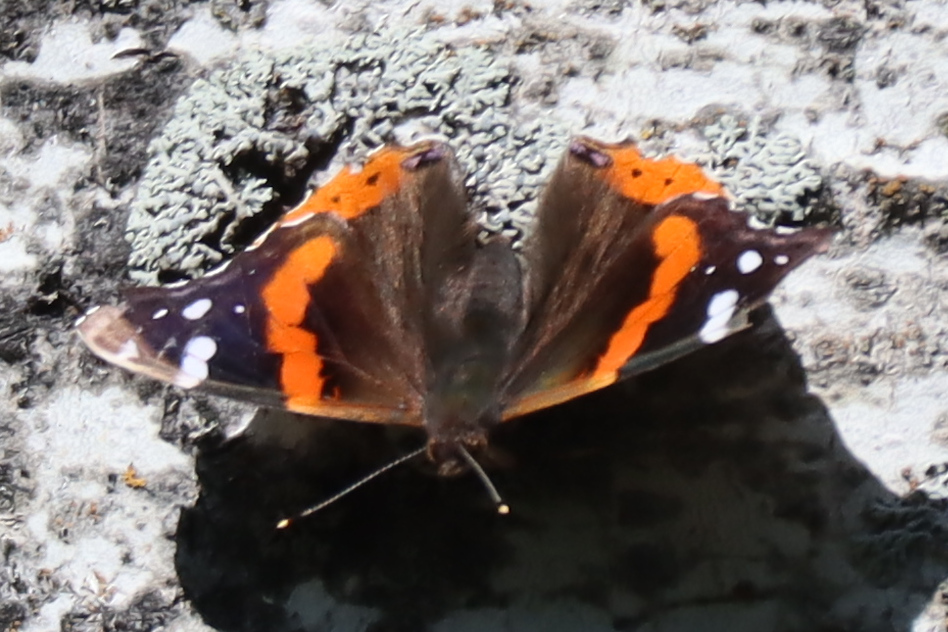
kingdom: Animalia
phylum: Arthropoda
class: Insecta
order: Lepidoptera
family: Nymphalidae
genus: Vanessa
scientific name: Vanessa atalanta
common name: Red admiral
